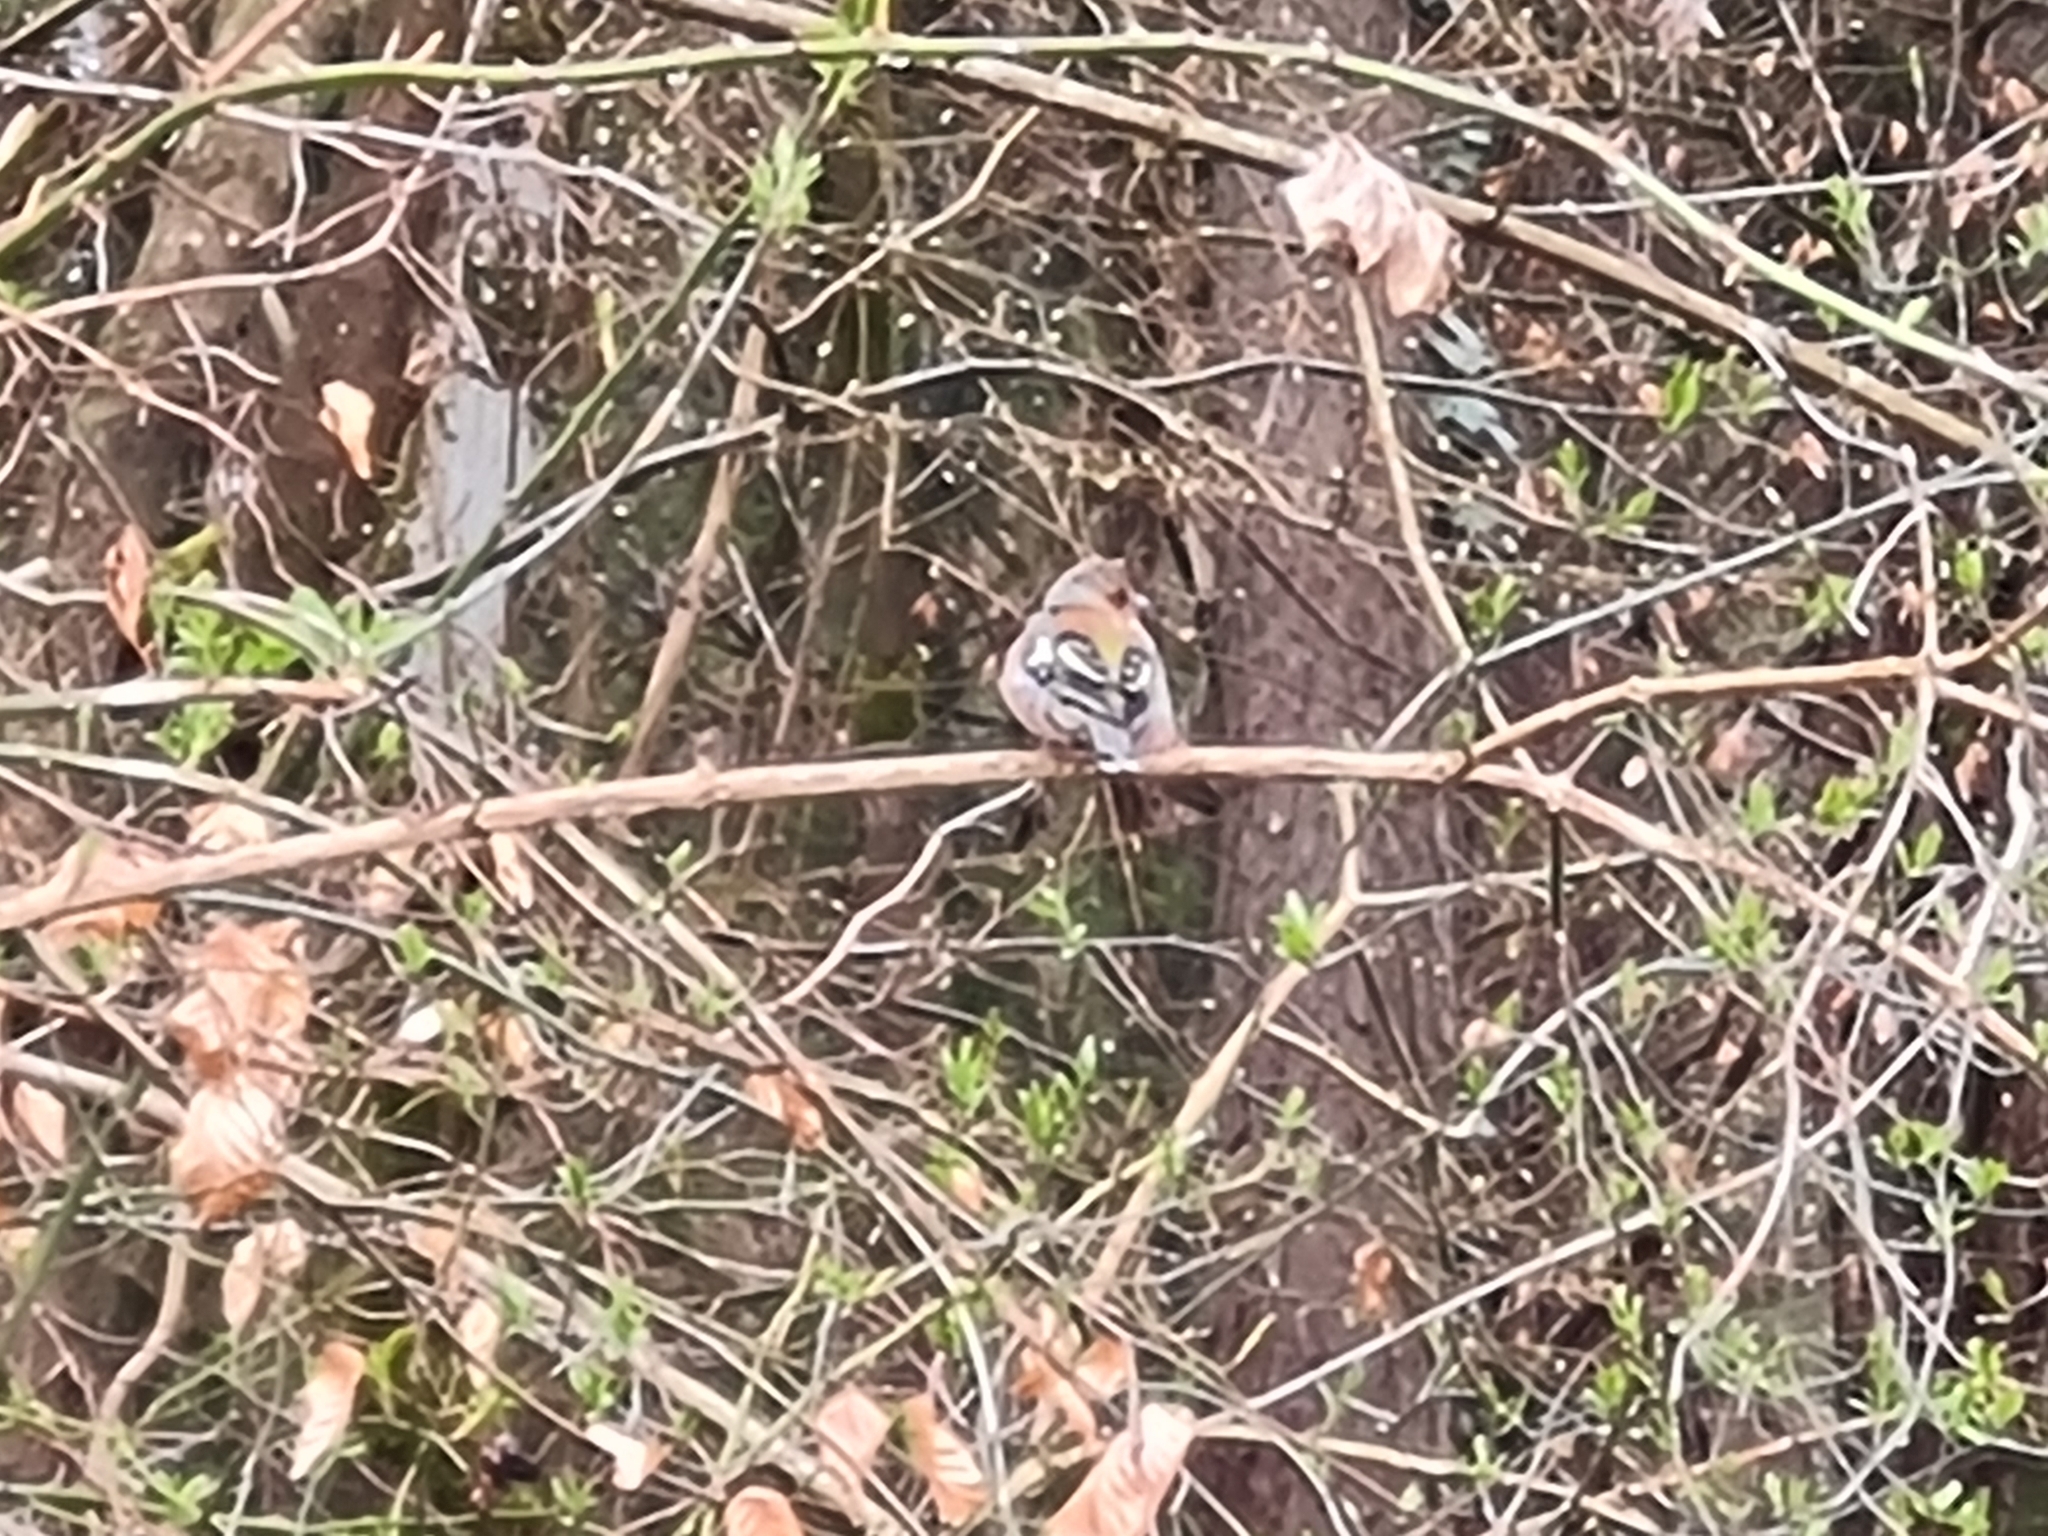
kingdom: Animalia
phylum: Chordata
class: Aves
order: Passeriformes
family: Fringillidae
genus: Fringilla
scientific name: Fringilla coelebs
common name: Common chaffinch
